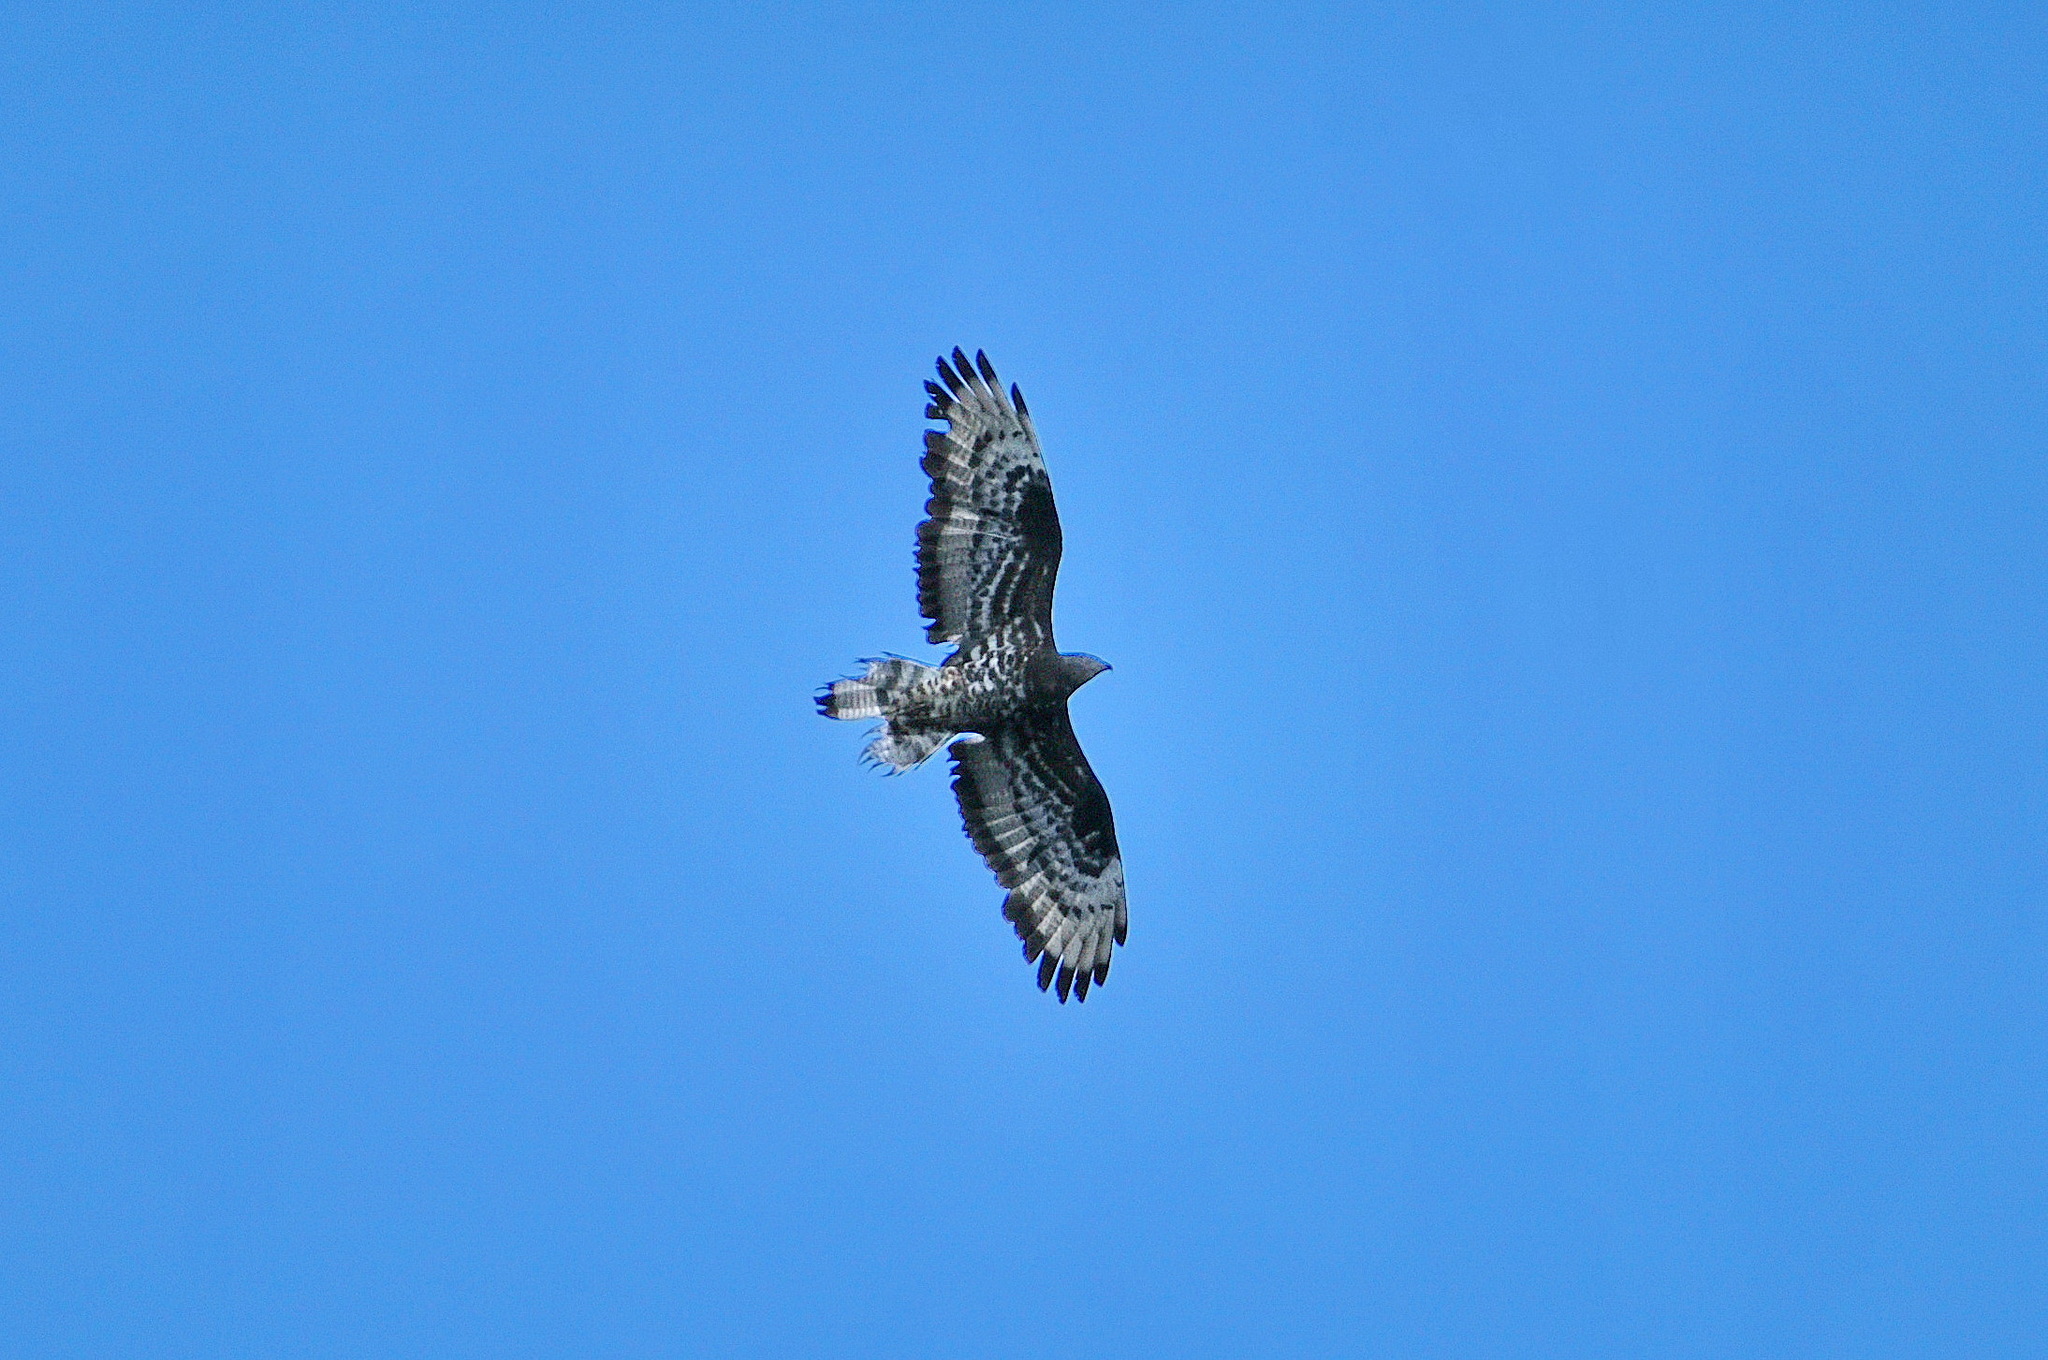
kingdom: Animalia
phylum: Chordata
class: Aves
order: Accipitriformes
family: Accipitridae
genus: Pernis
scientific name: Pernis apivorus
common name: European honey buzzard
